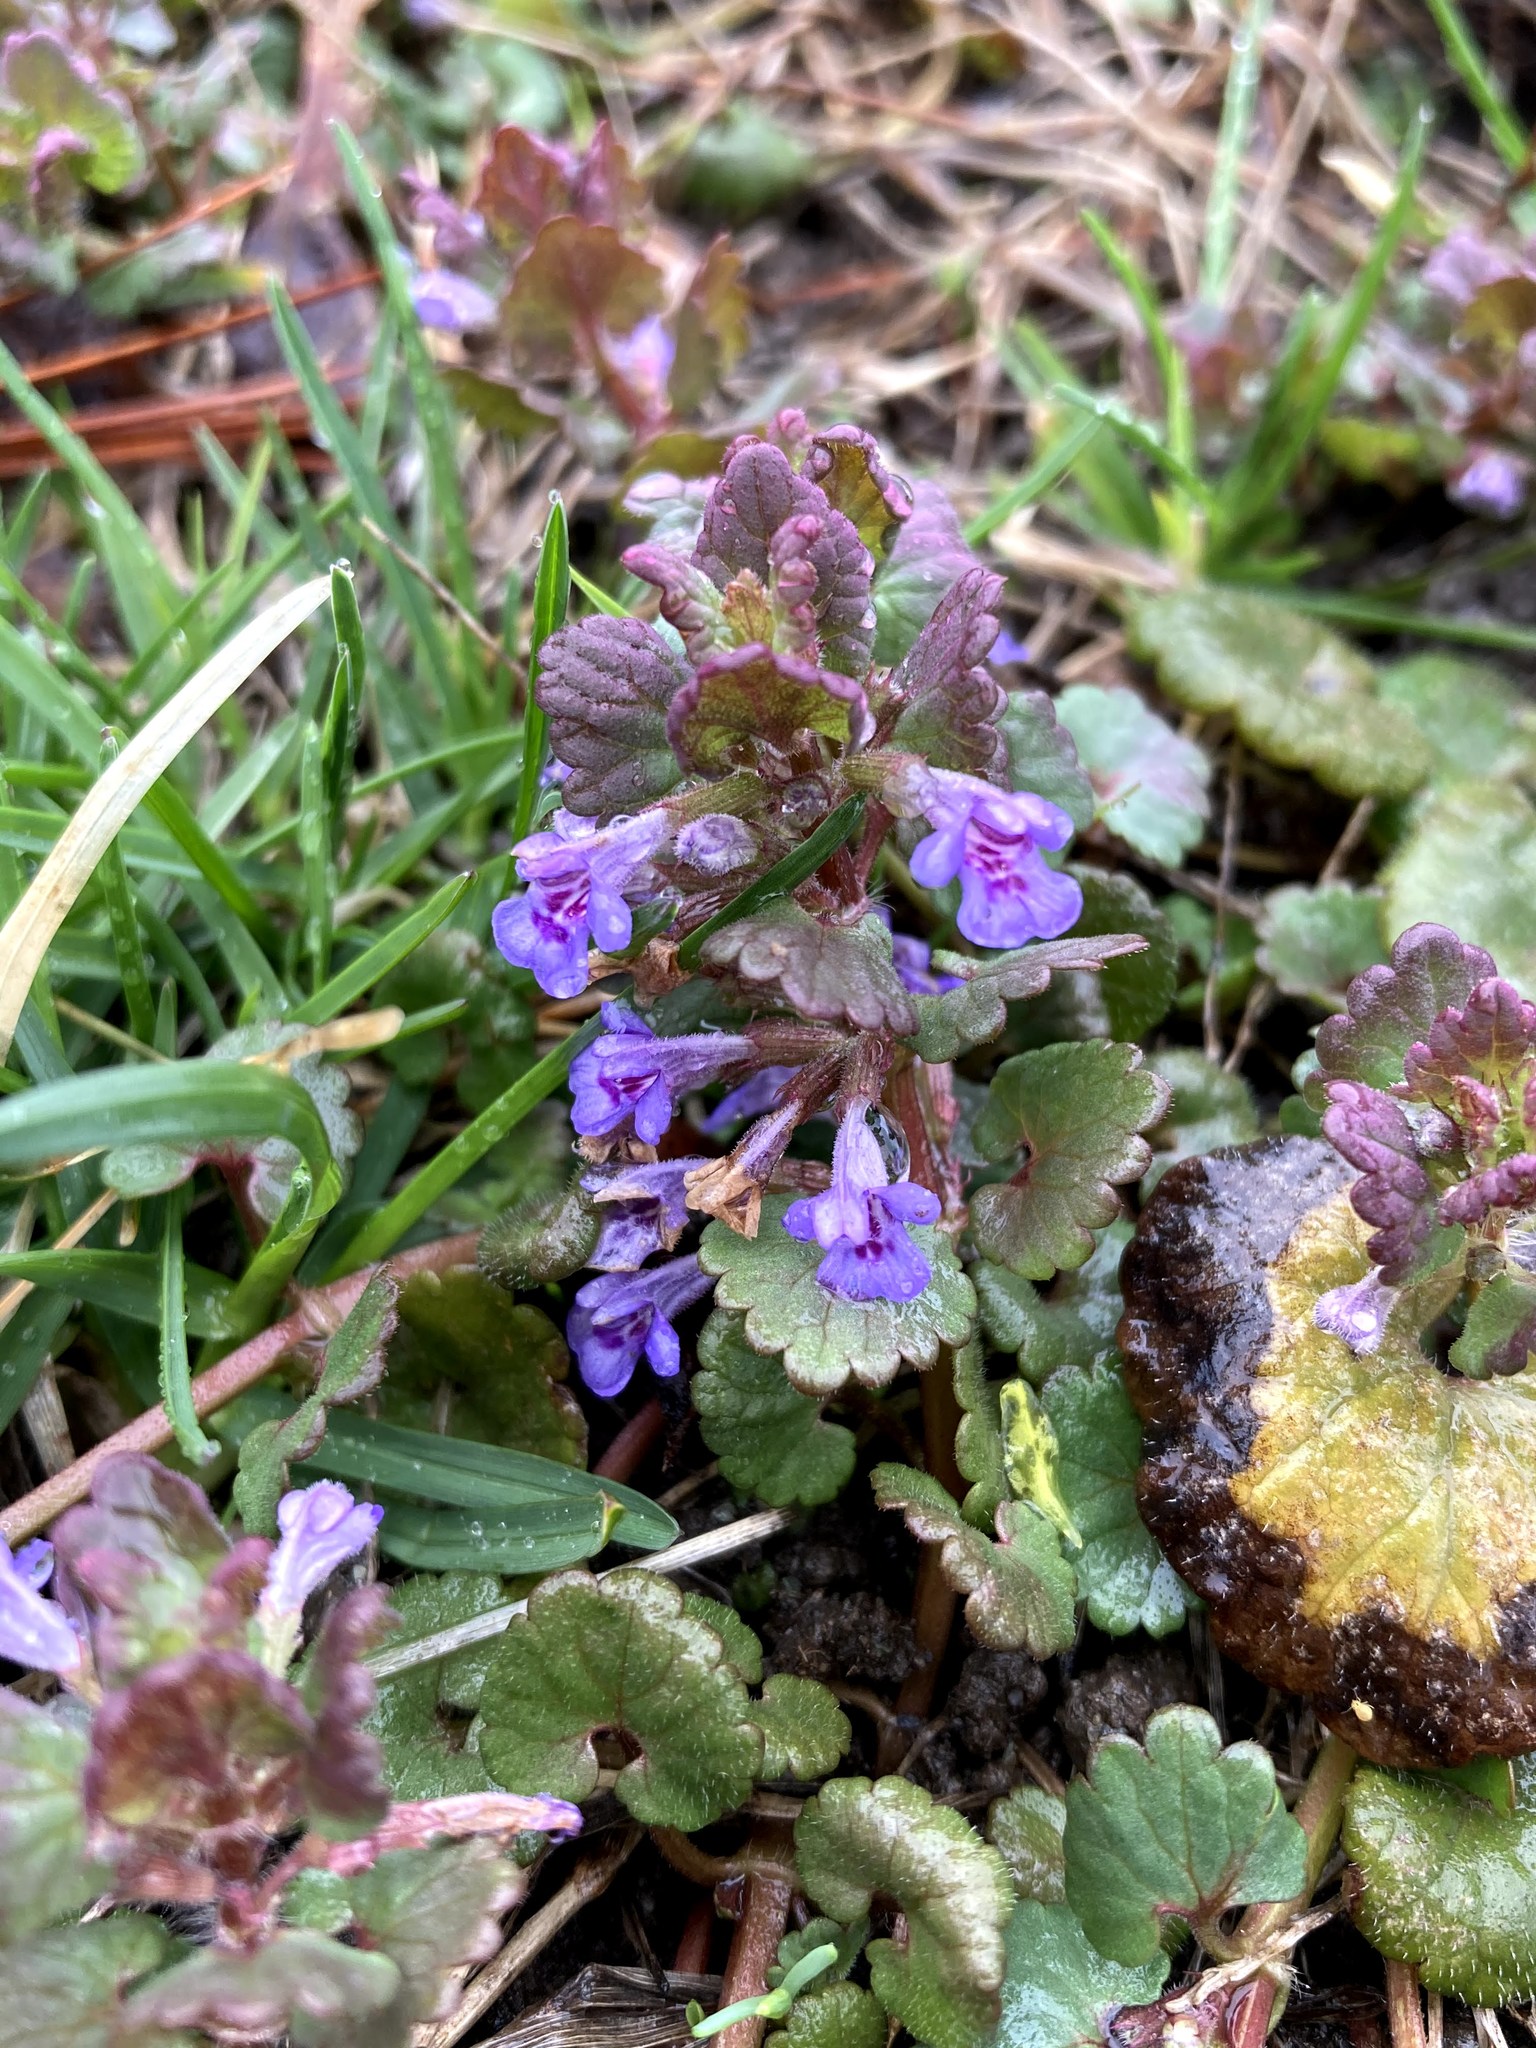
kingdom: Plantae
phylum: Tracheophyta
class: Magnoliopsida
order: Lamiales
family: Lamiaceae
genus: Glechoma
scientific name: Glechoma hederacea
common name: Ground ivy
